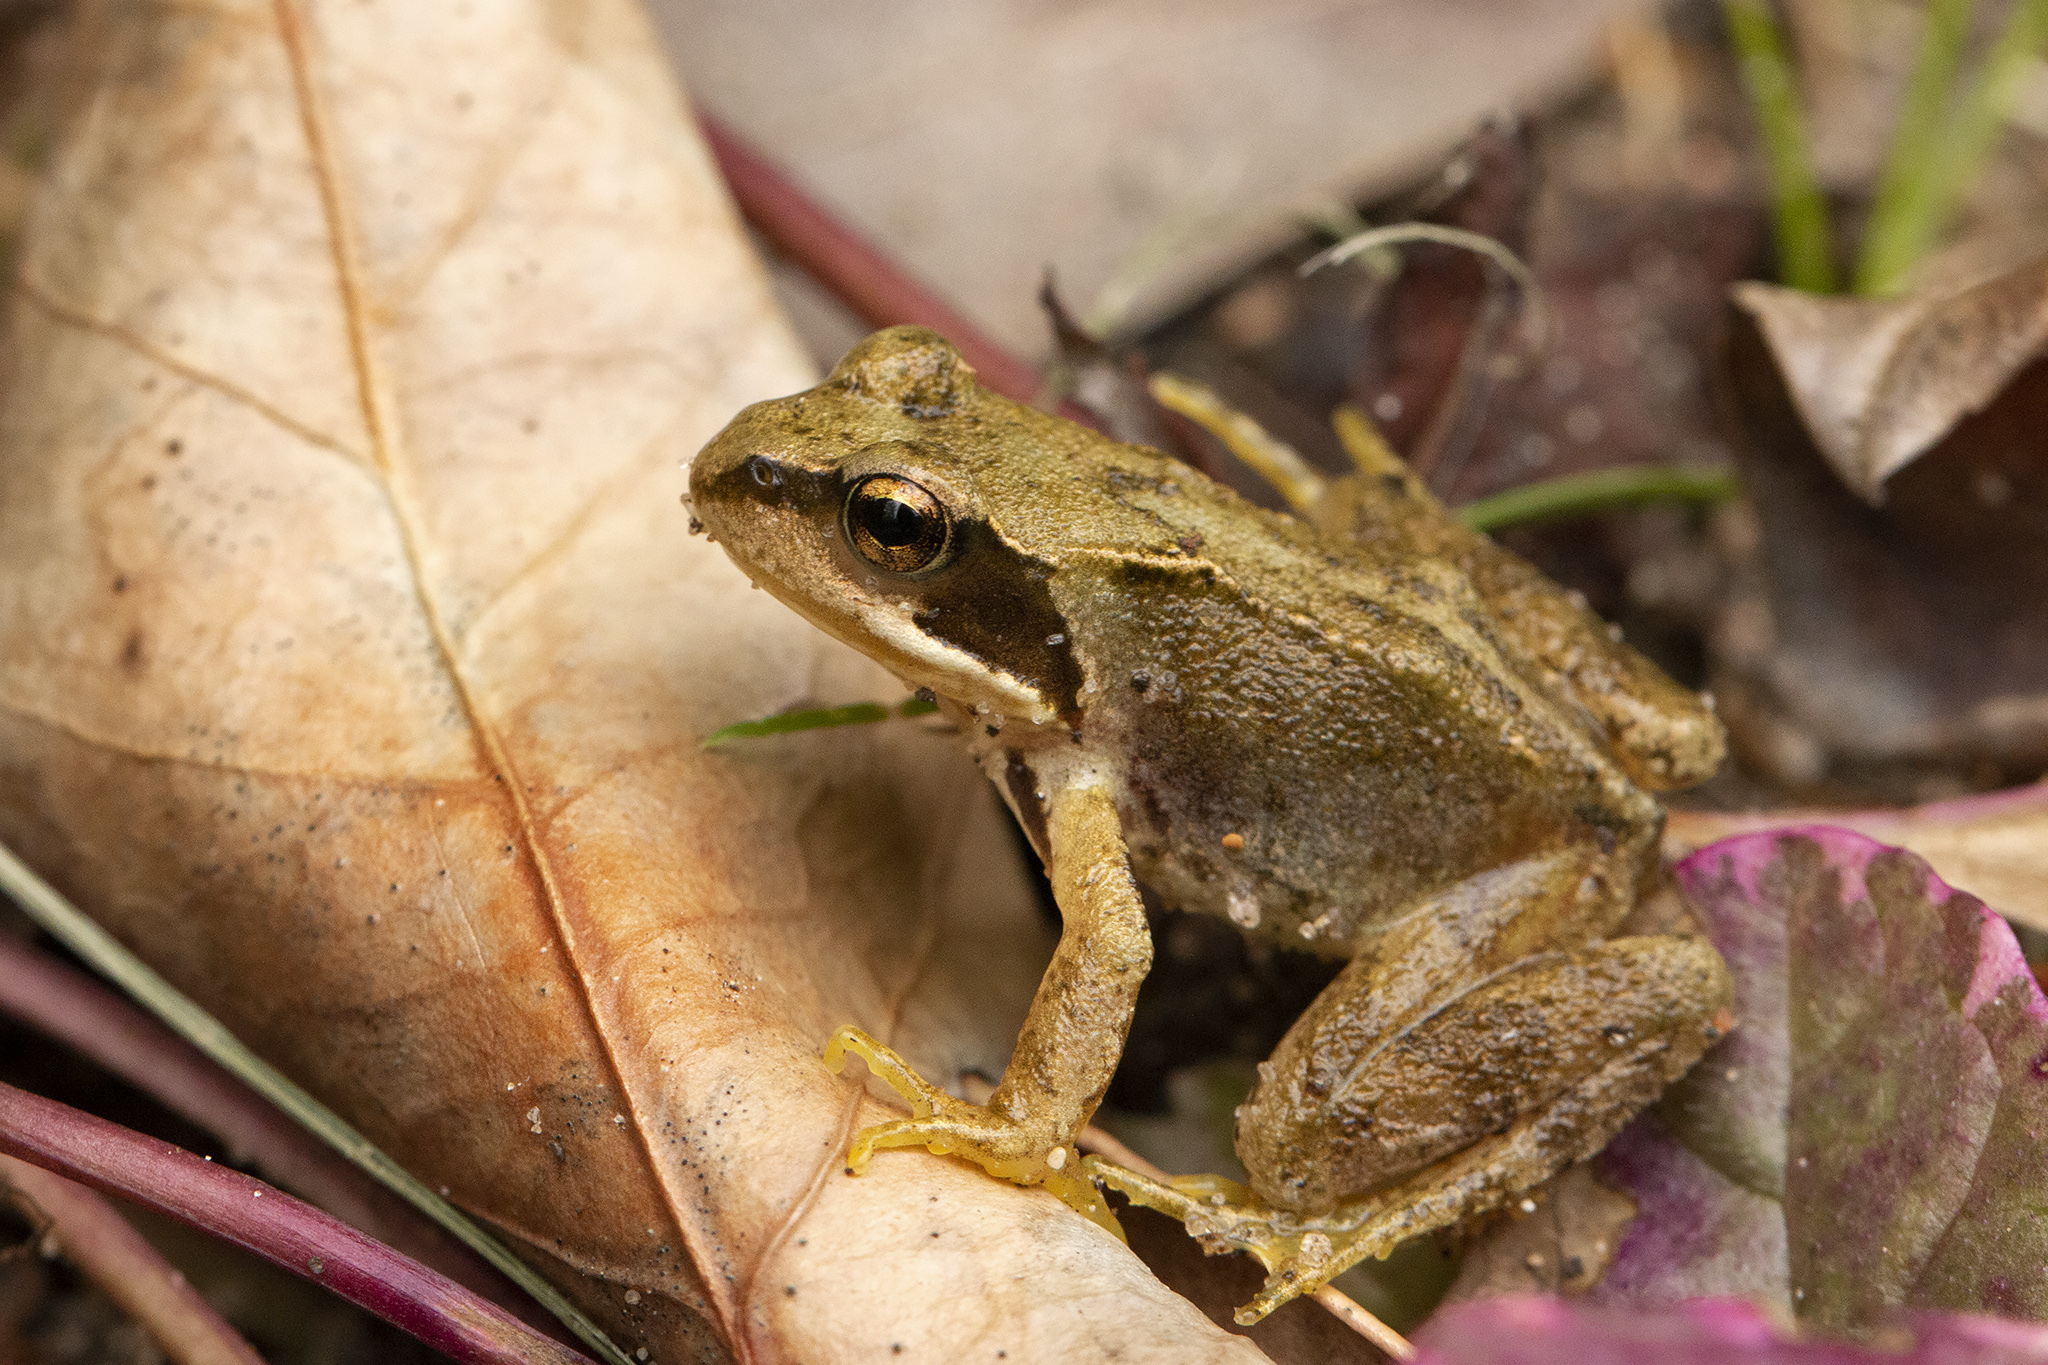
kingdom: Animalia
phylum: Chordata
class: Amphibia
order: Anura
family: Ranidae
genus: Rana
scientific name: Rana temporaria
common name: Common frog
